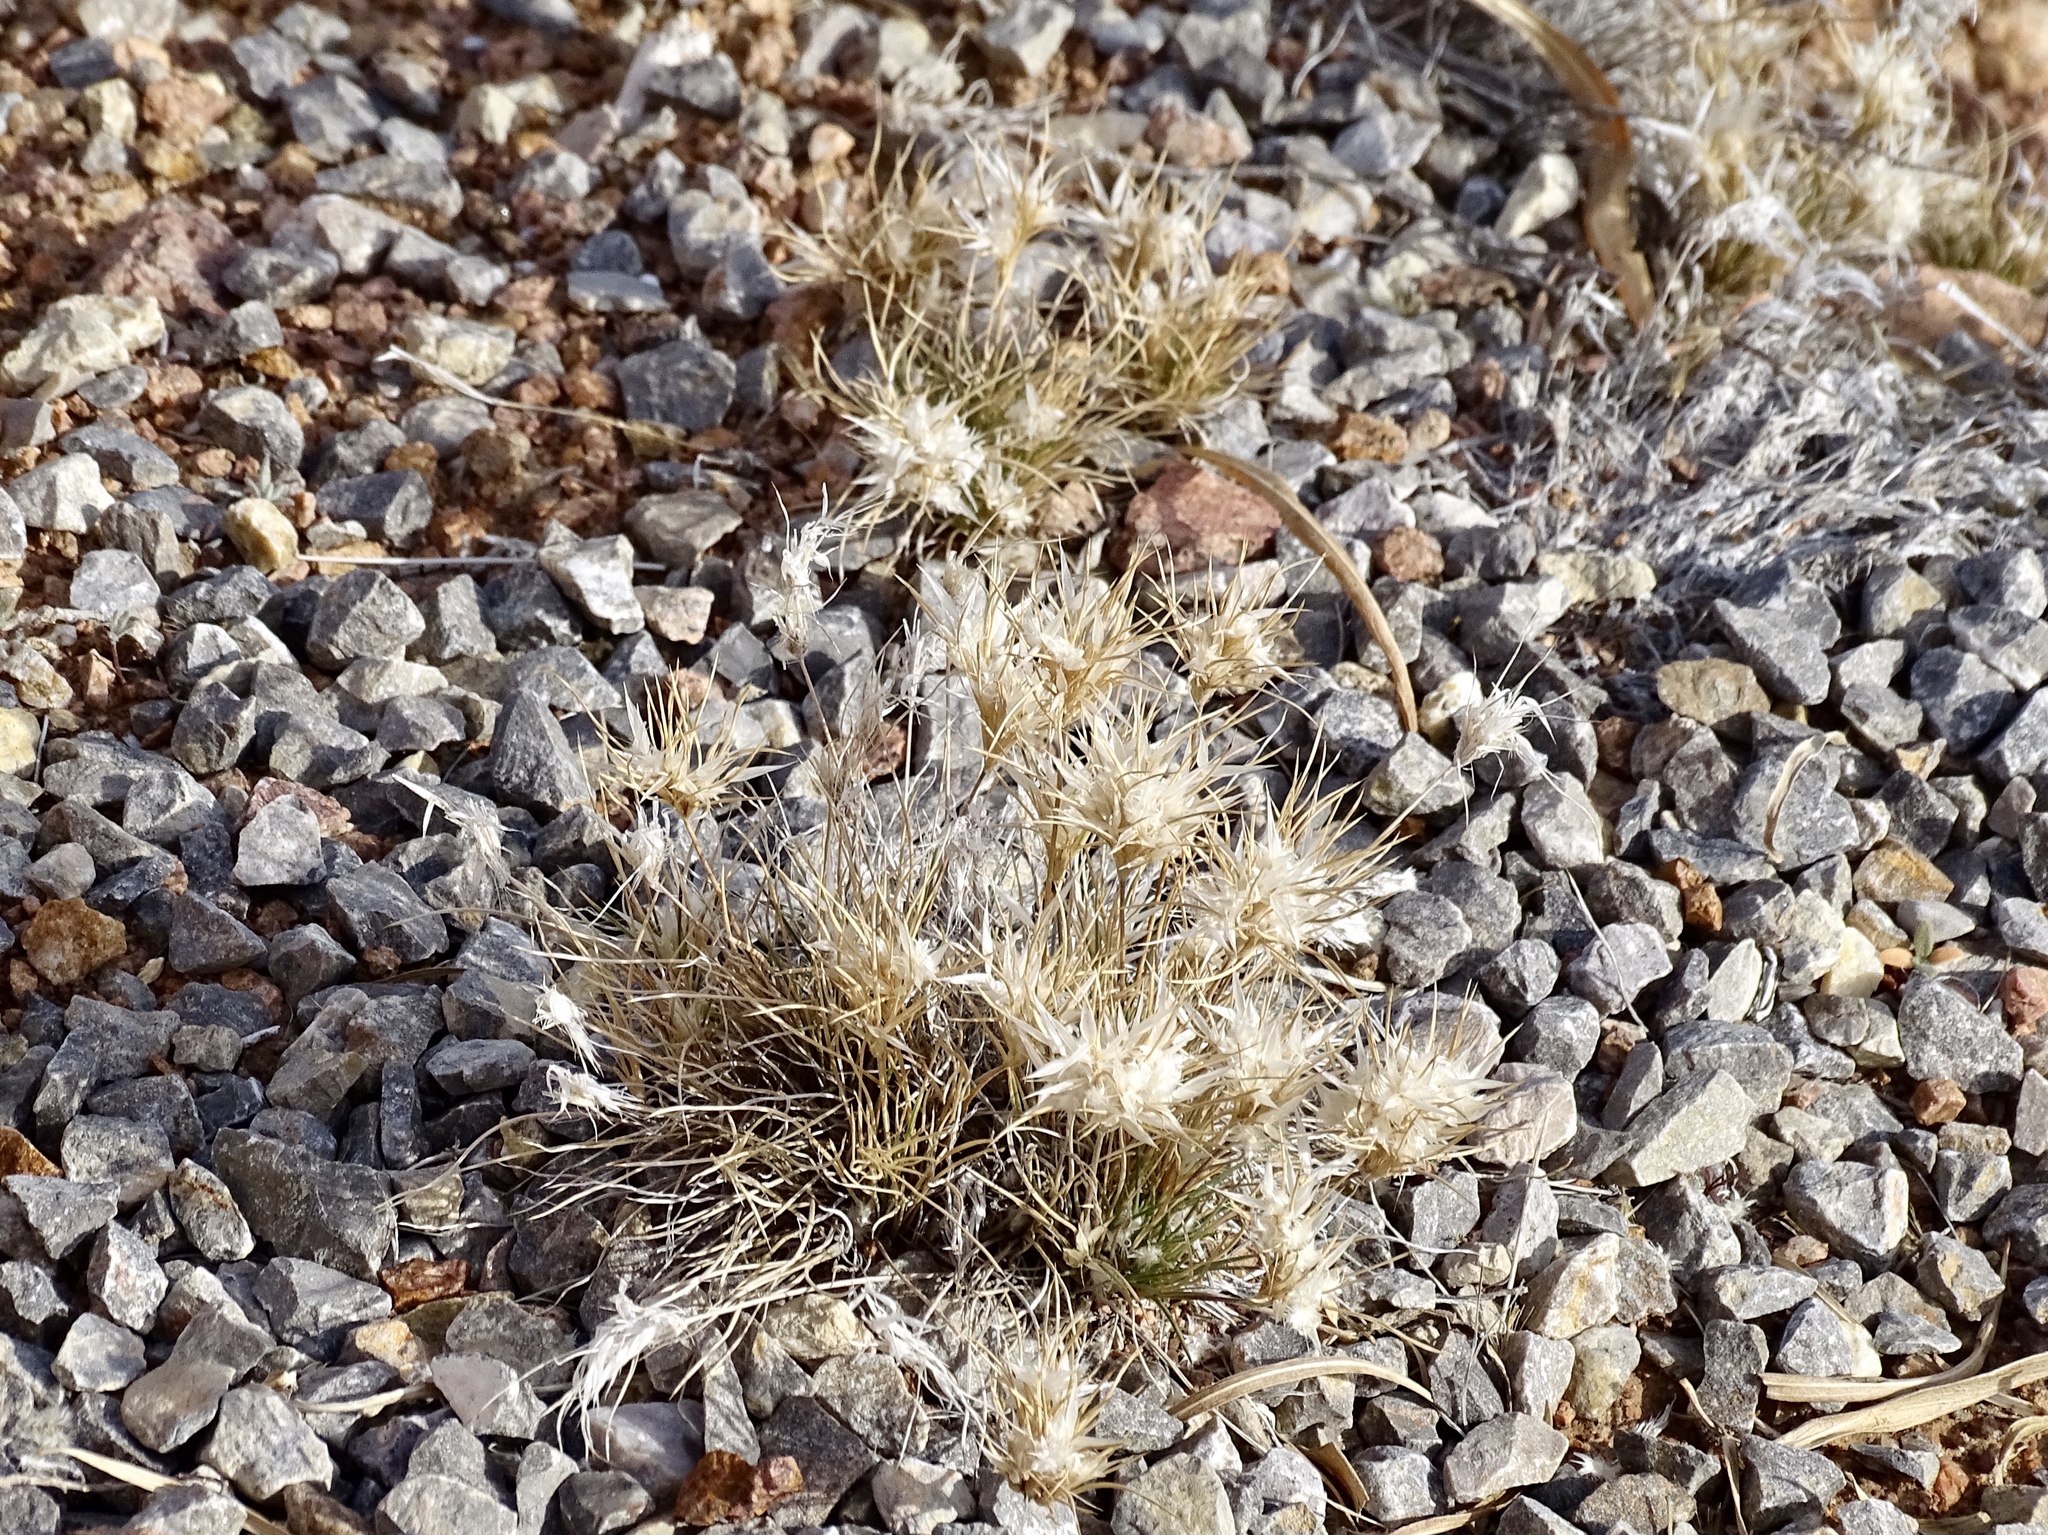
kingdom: Plantae
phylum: Tracheophyta
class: Liliopsida
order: Poales
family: Poaceae
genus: Dasyochloa
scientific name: Dasyochloa pulchella
